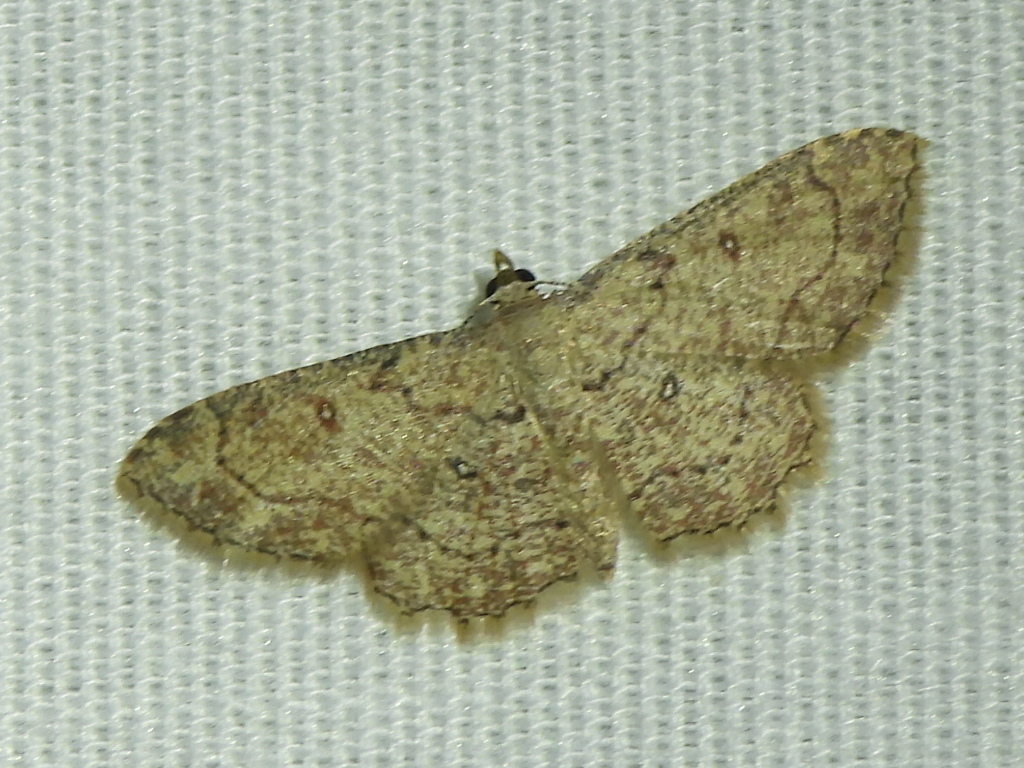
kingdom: Animalia
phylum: Arthropoda
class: Insecta
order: Lepidoptera
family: Geometridae
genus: Cyclophora
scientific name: Cyclophora nanaria
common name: Cankerworm
